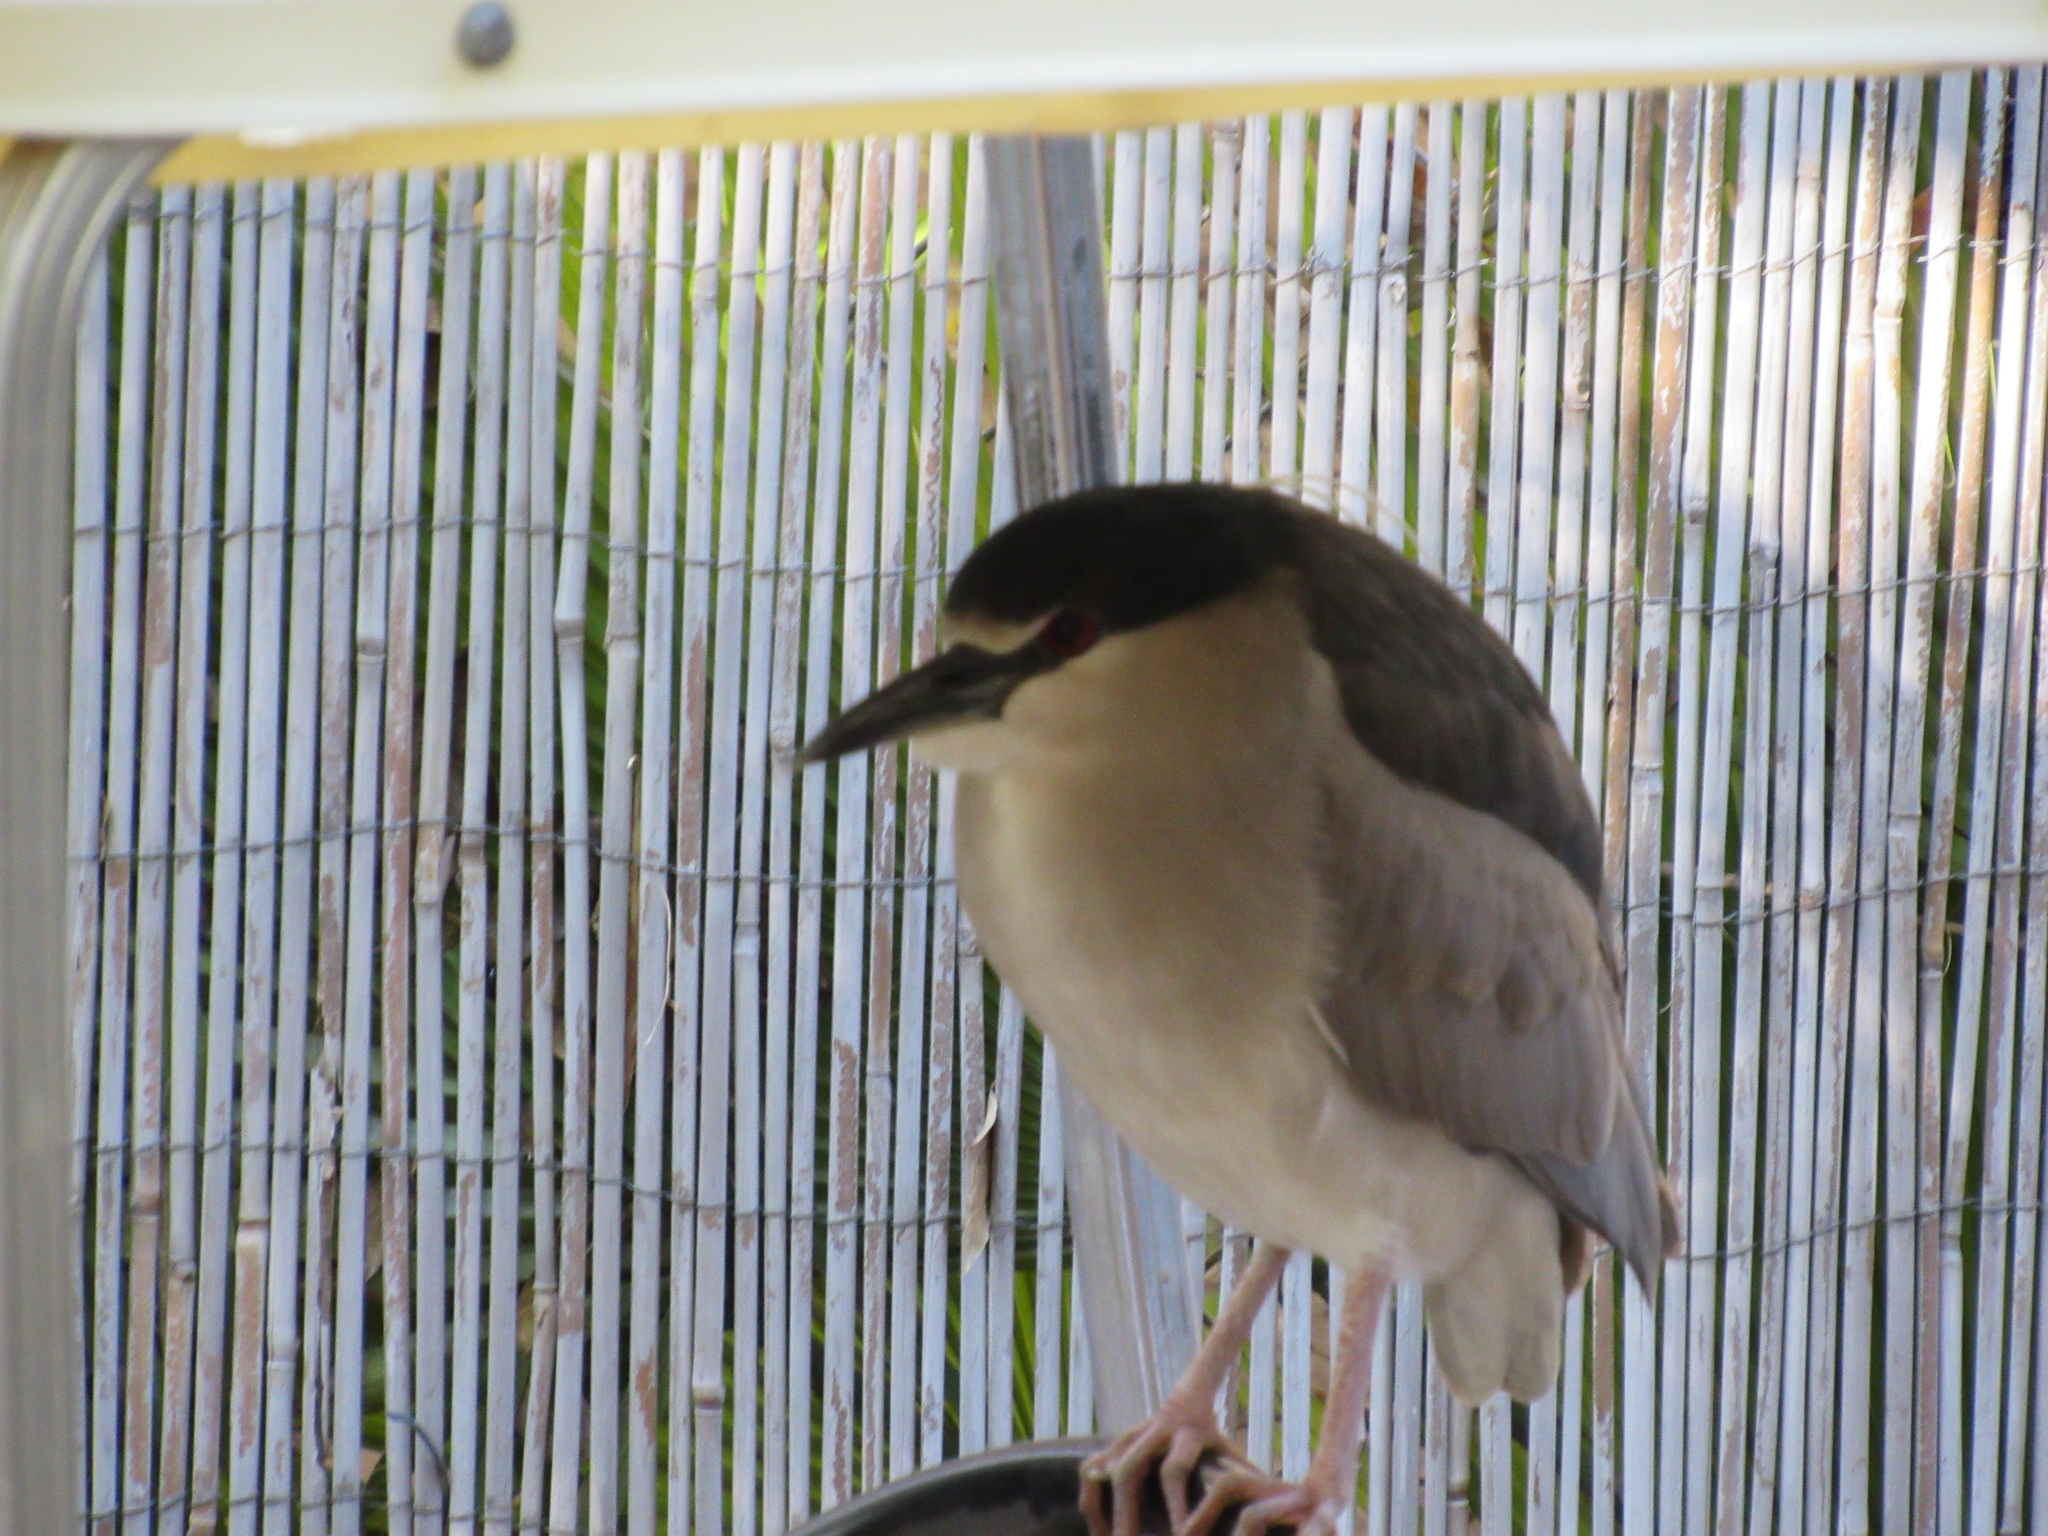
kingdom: Animalia
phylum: Chordata
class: Aves
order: Pelecaniformes
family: Ardeidae
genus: Nycticorax
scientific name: Nycticorax nycticorax
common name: Black-crowned night heron
